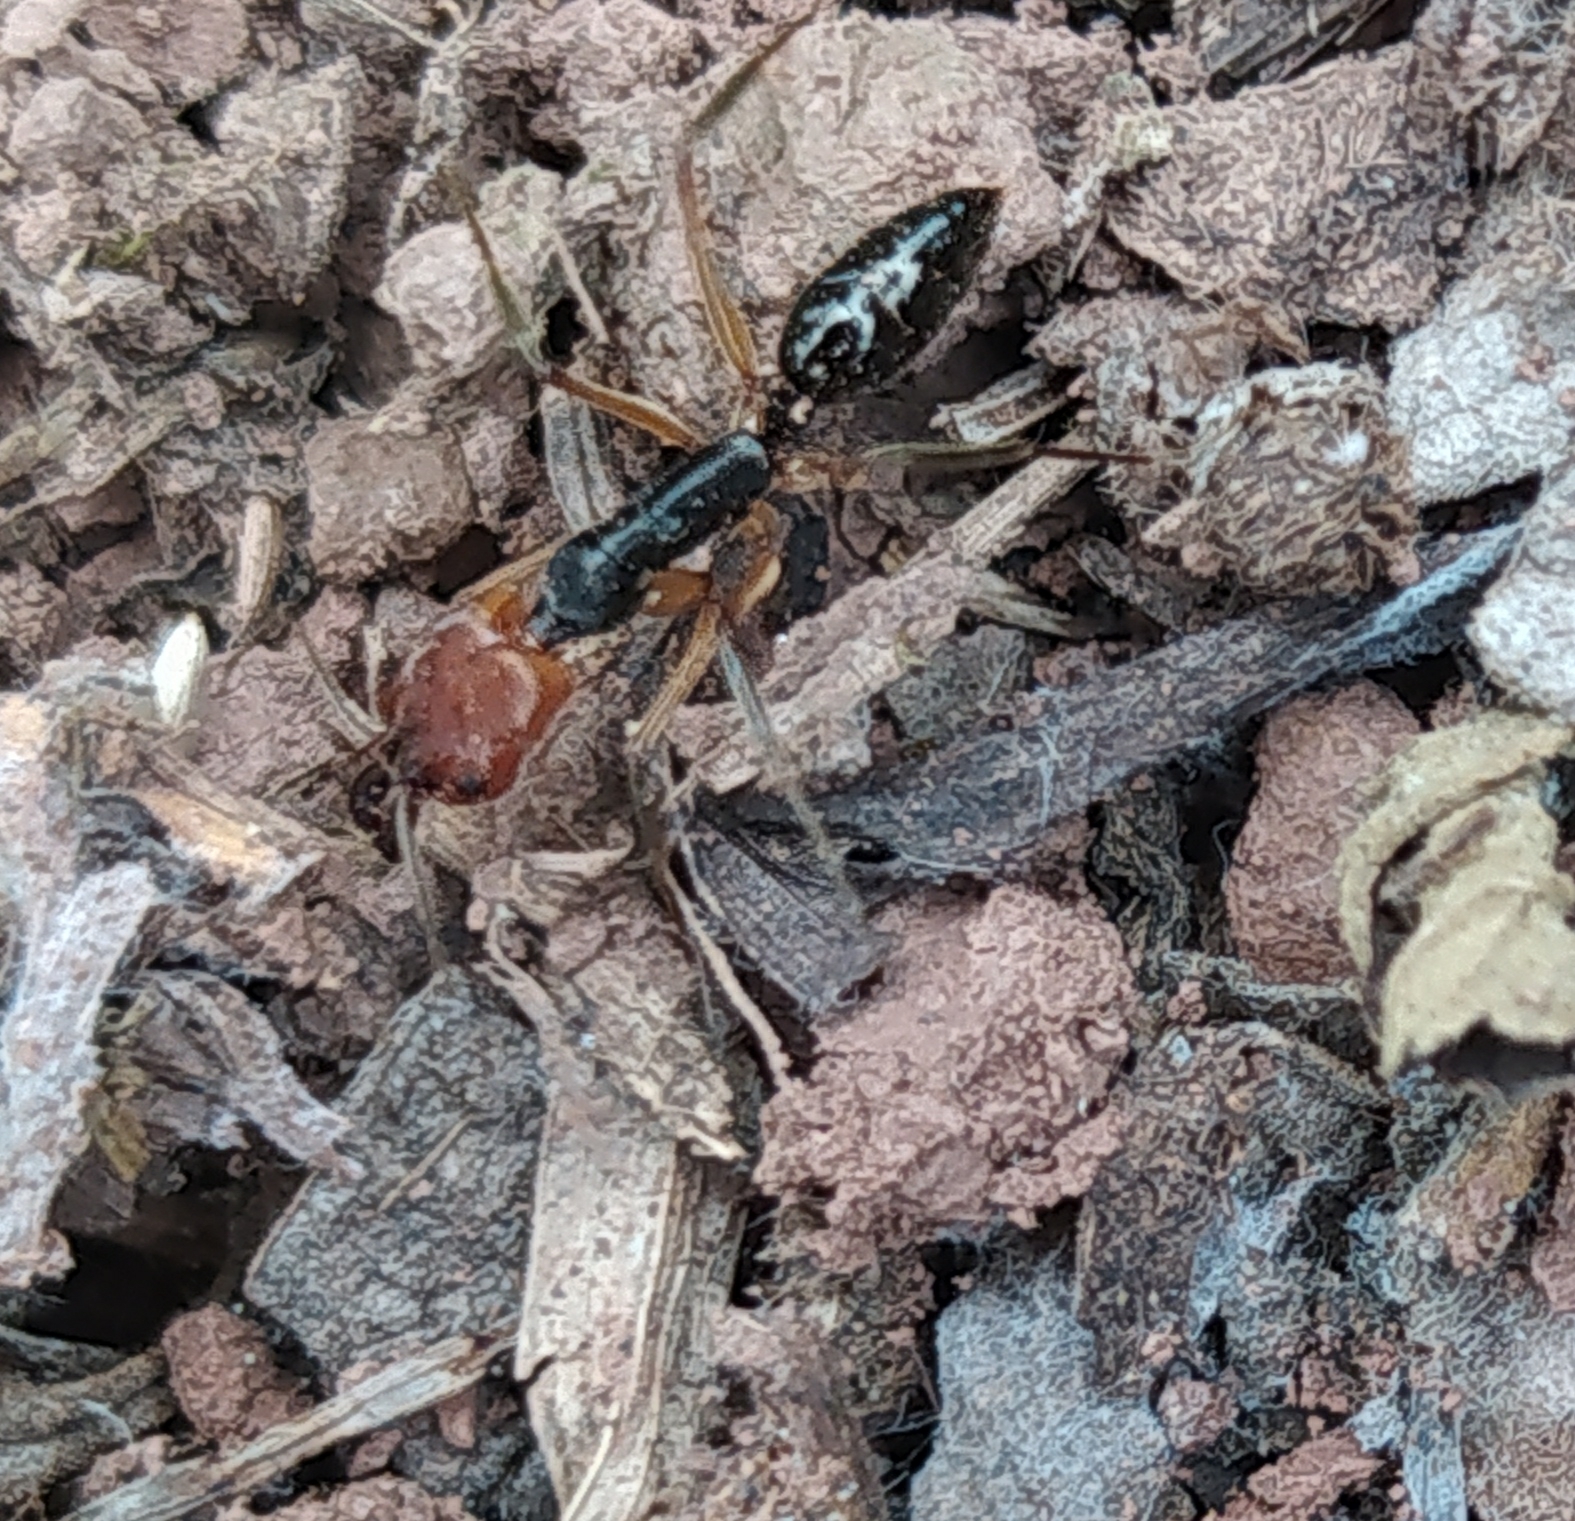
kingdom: Animalia
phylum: Arthropoda
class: Insecta
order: Hymenoptera
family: Formicidae
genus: Odontomachus
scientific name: Odontomachus erythrocephalus
